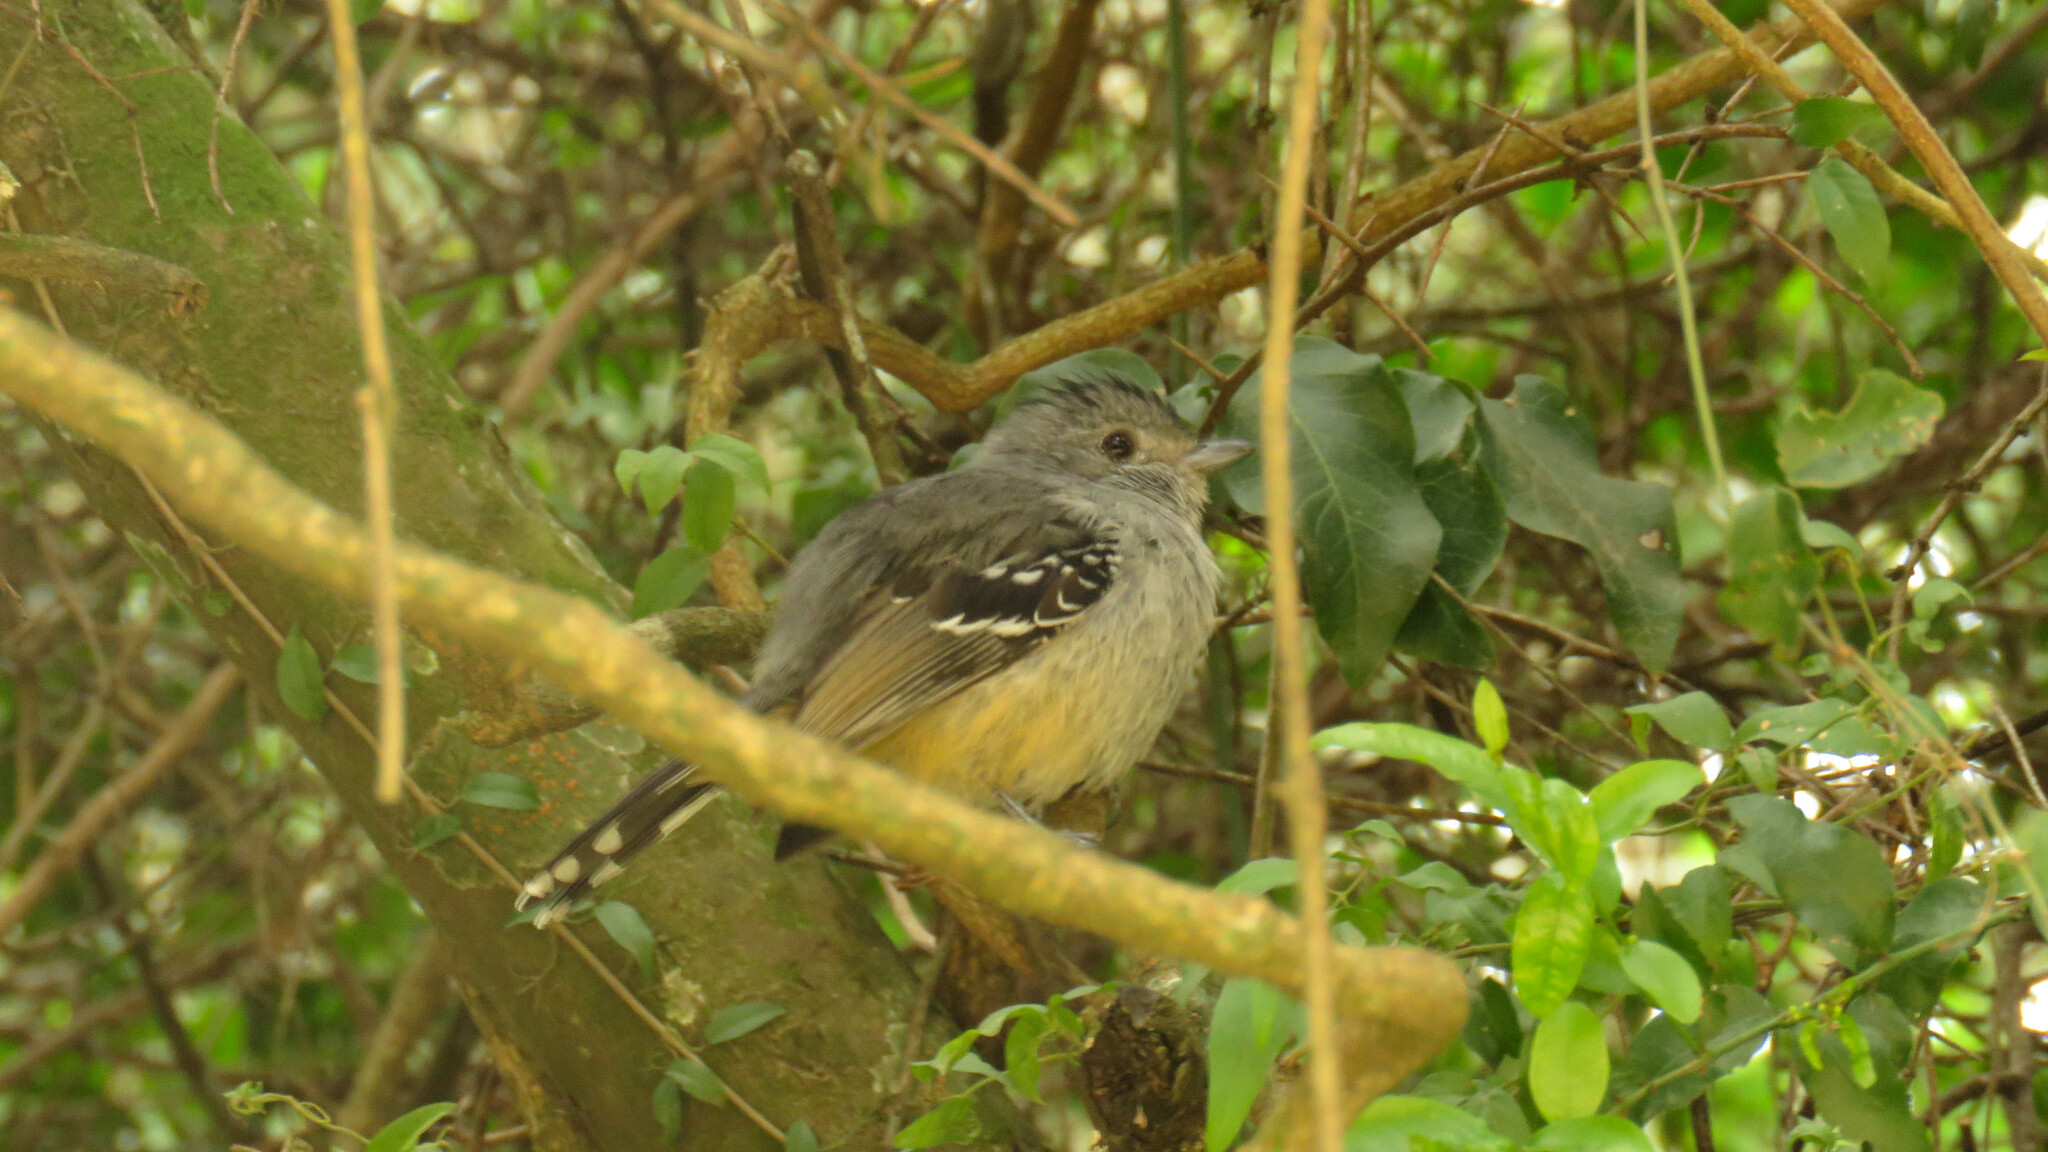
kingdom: Animalia
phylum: Chordata
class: Aves
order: Passeriformes
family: Thamnophilidae
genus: Thamnophilus
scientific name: Thamnophilus caerulescens
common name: Variable antshrike
